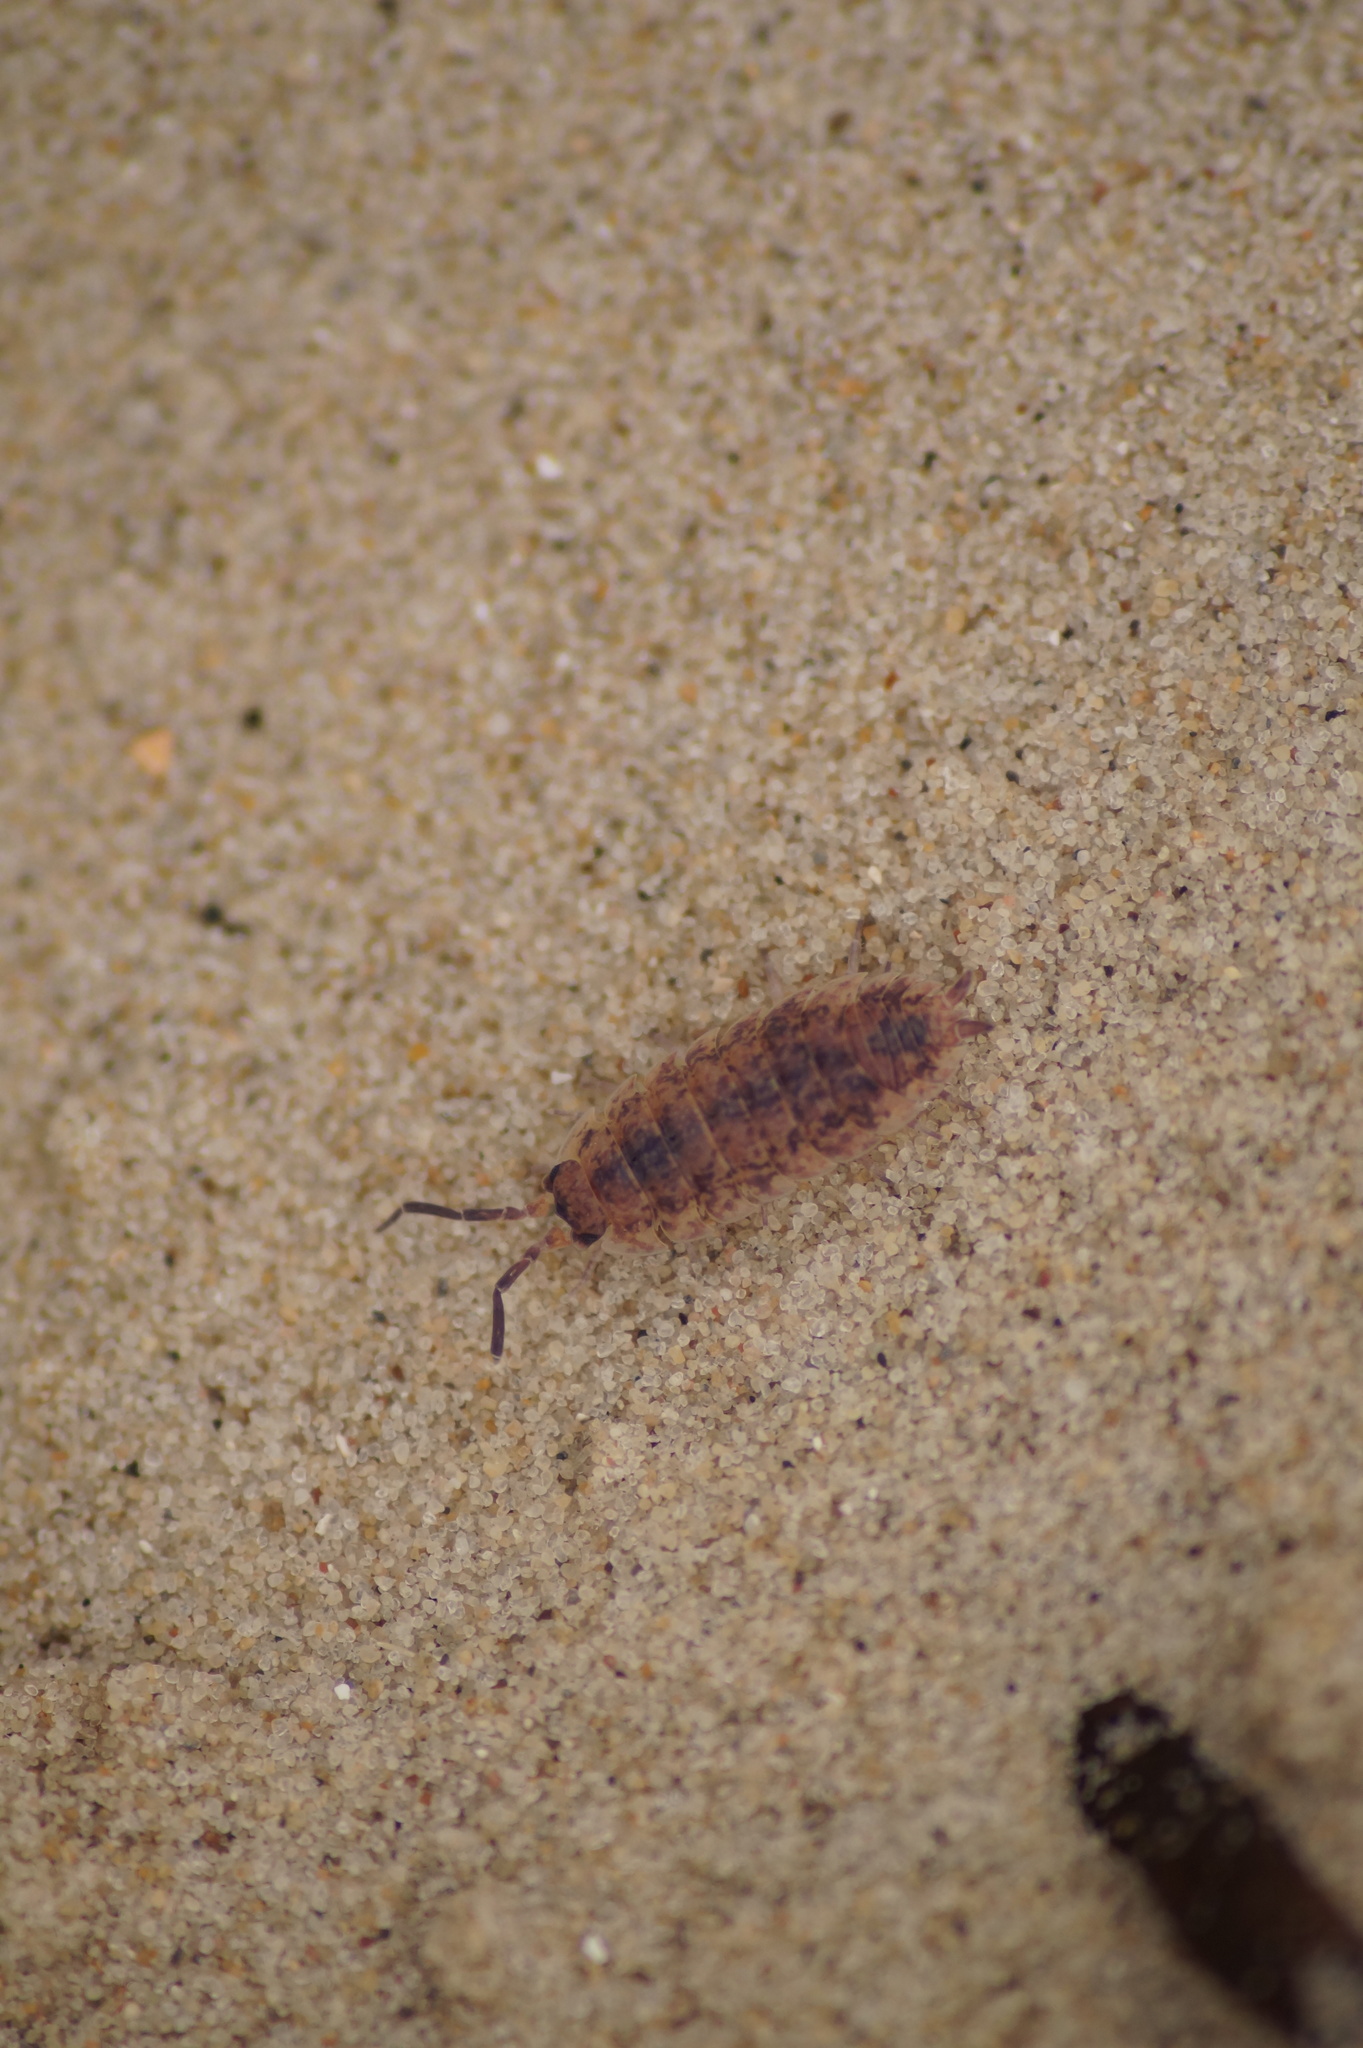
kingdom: Animalia
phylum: Arthropoda
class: Malacostraca
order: Isopoda
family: Porcellionidae
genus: Porcellio
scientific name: Porcellio scaber
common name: Common rough woodlouse
